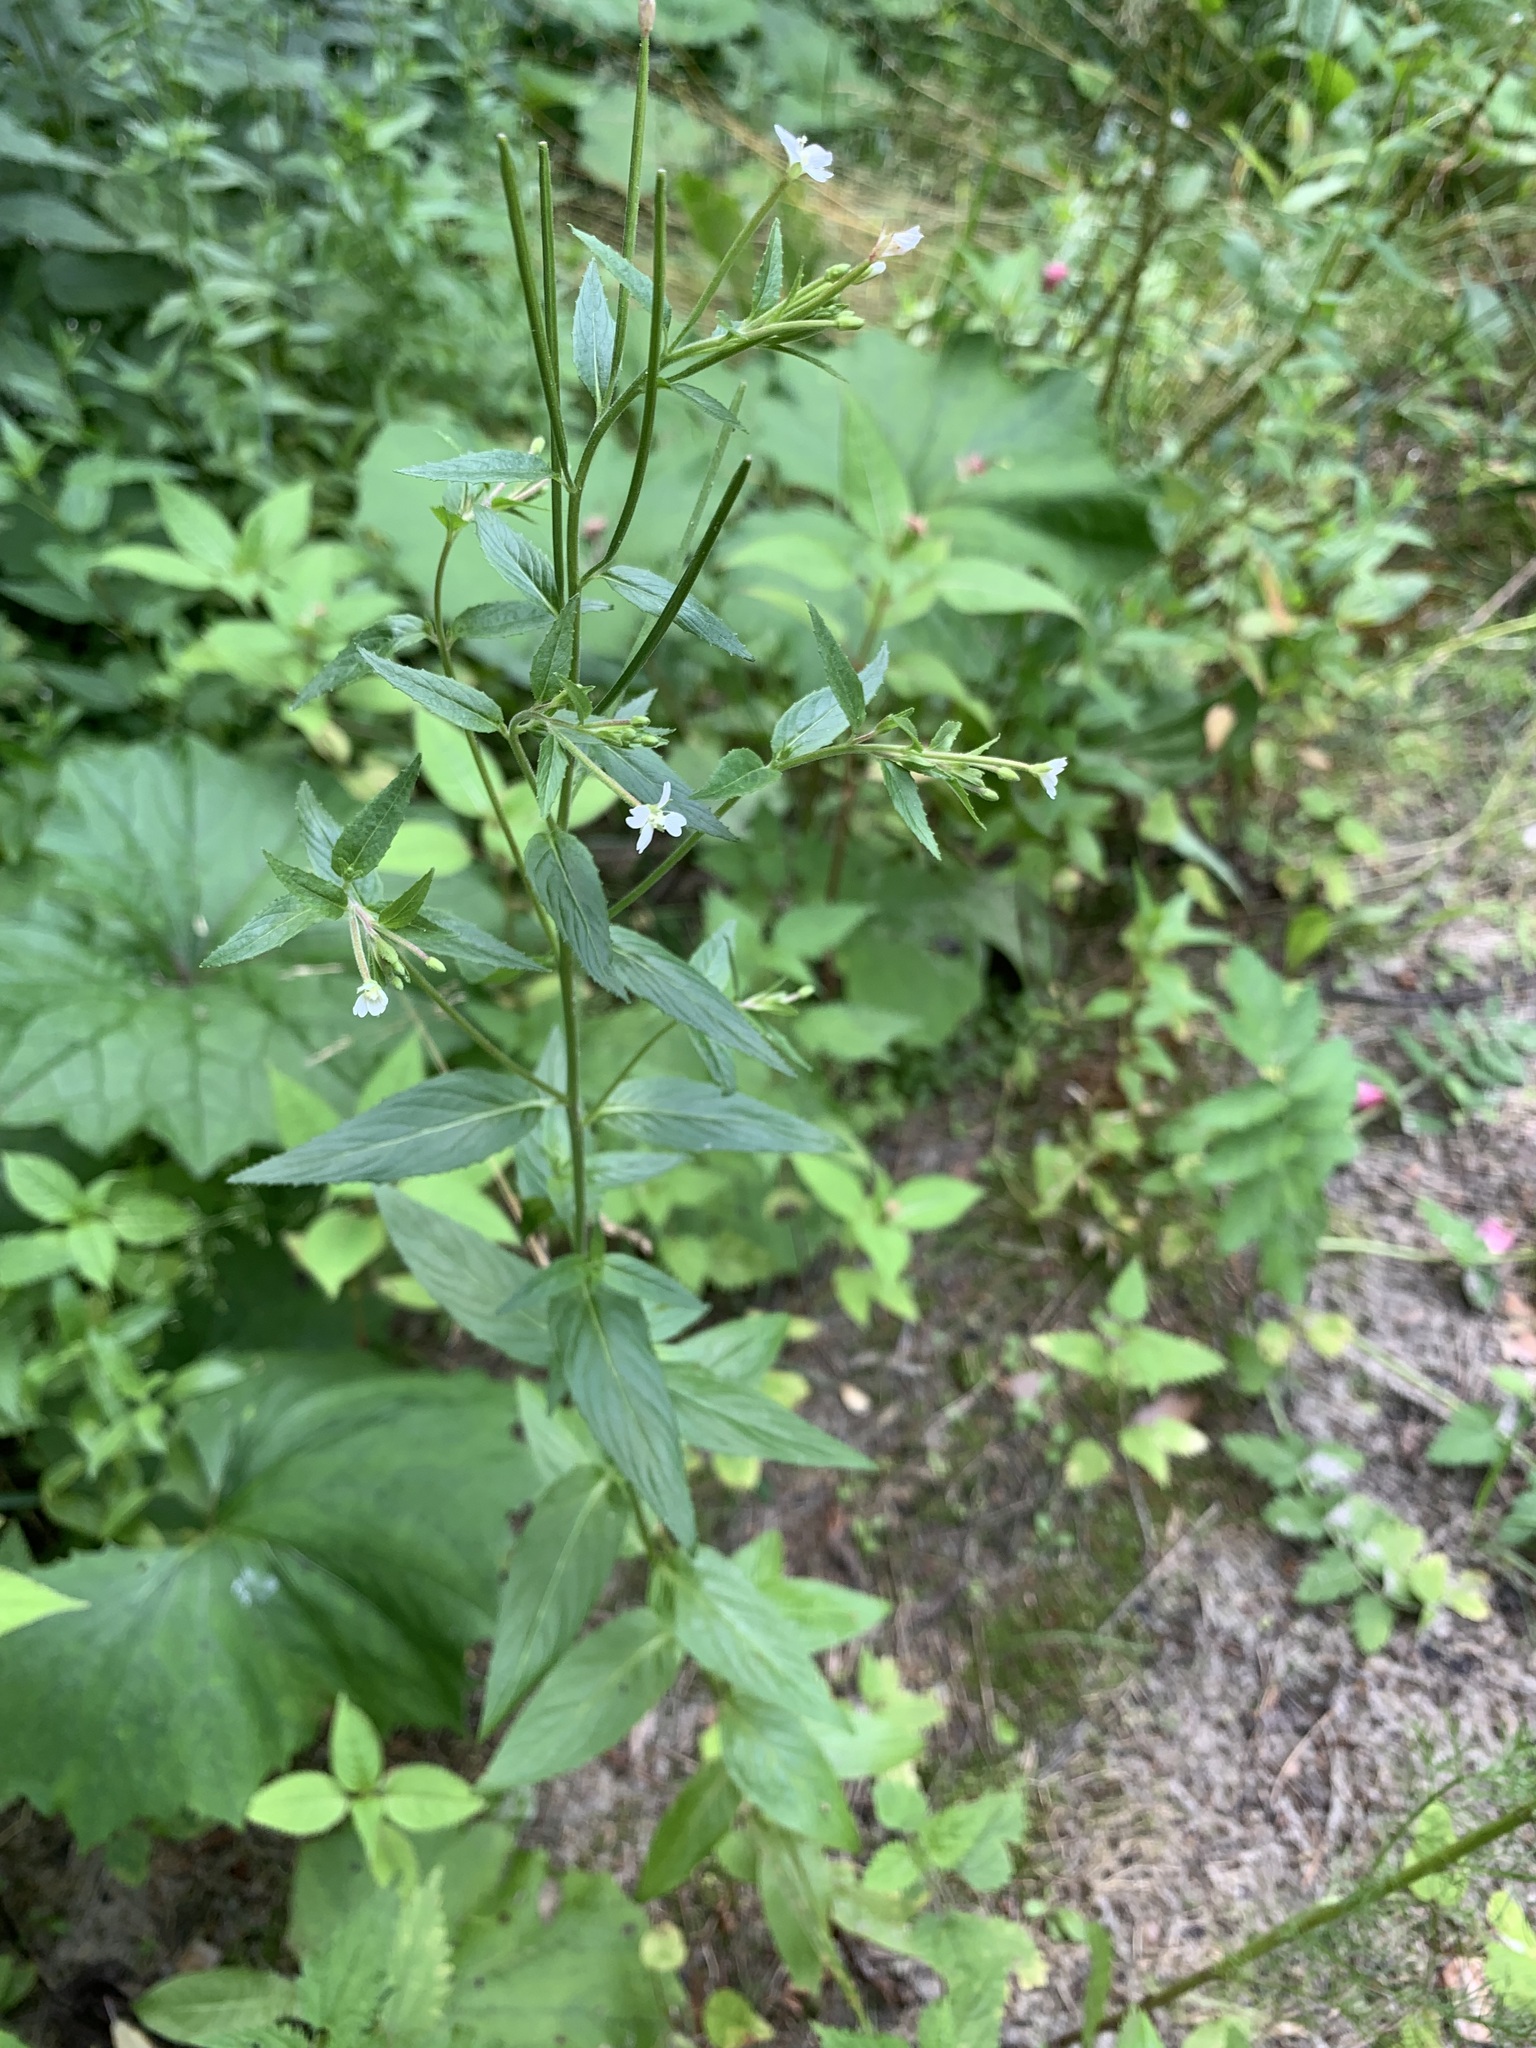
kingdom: Plantae
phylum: Tracheophyta
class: Magnoliopsida
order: Myrtales
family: Onagraceae
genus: Epilobium
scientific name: Epilobium pseudorubescens
